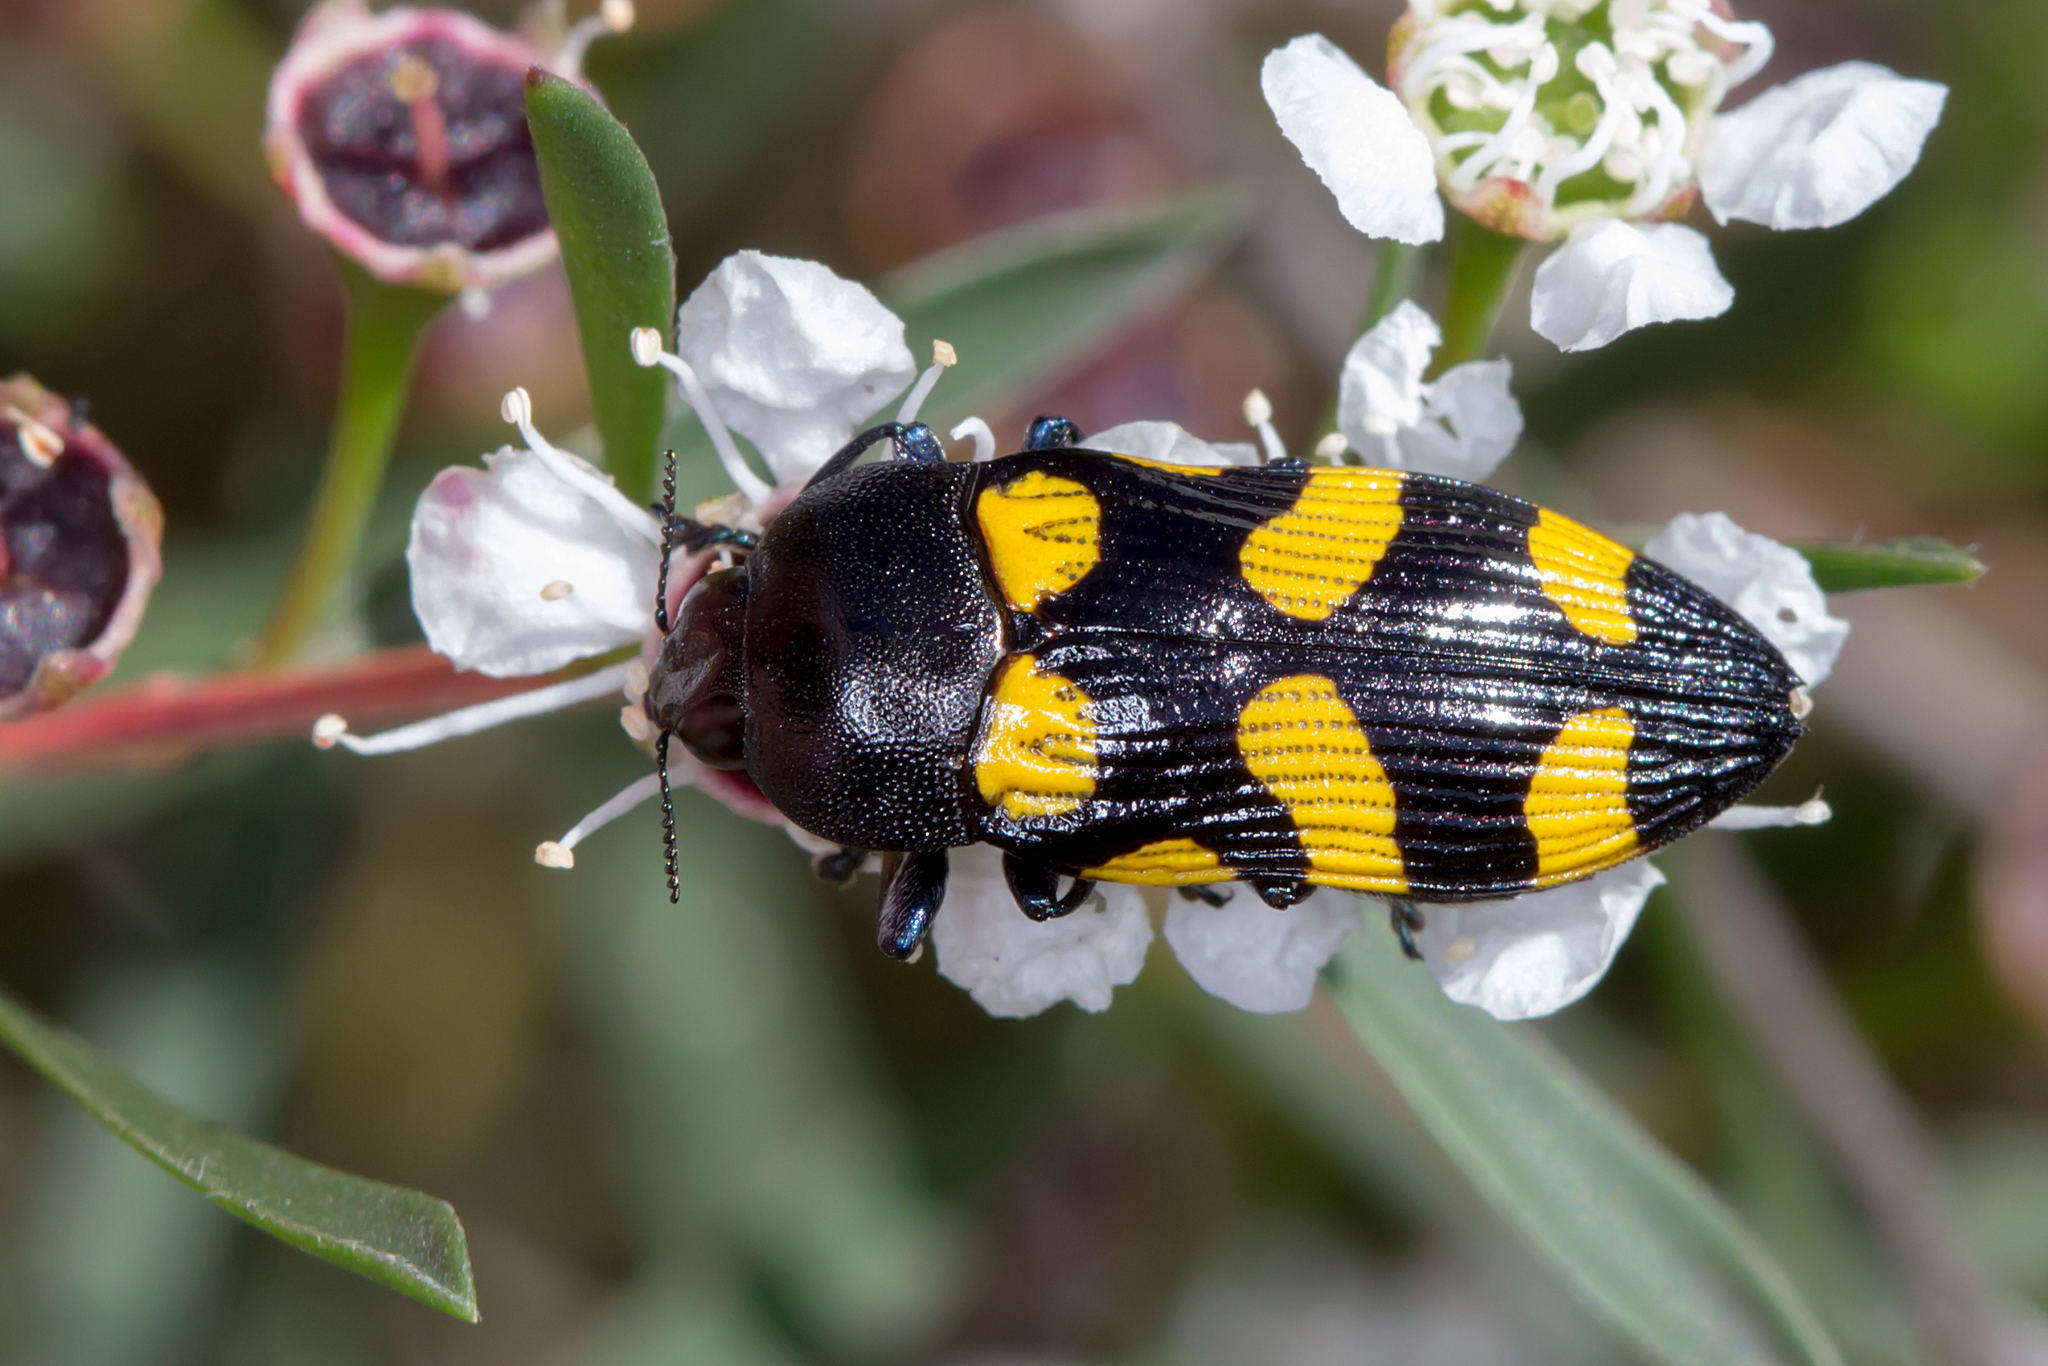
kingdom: Animalia
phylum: Arthropoda
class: Insecta
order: Coleoptera
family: Buprestidae
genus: Castiarina
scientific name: Castiarina australasiae
